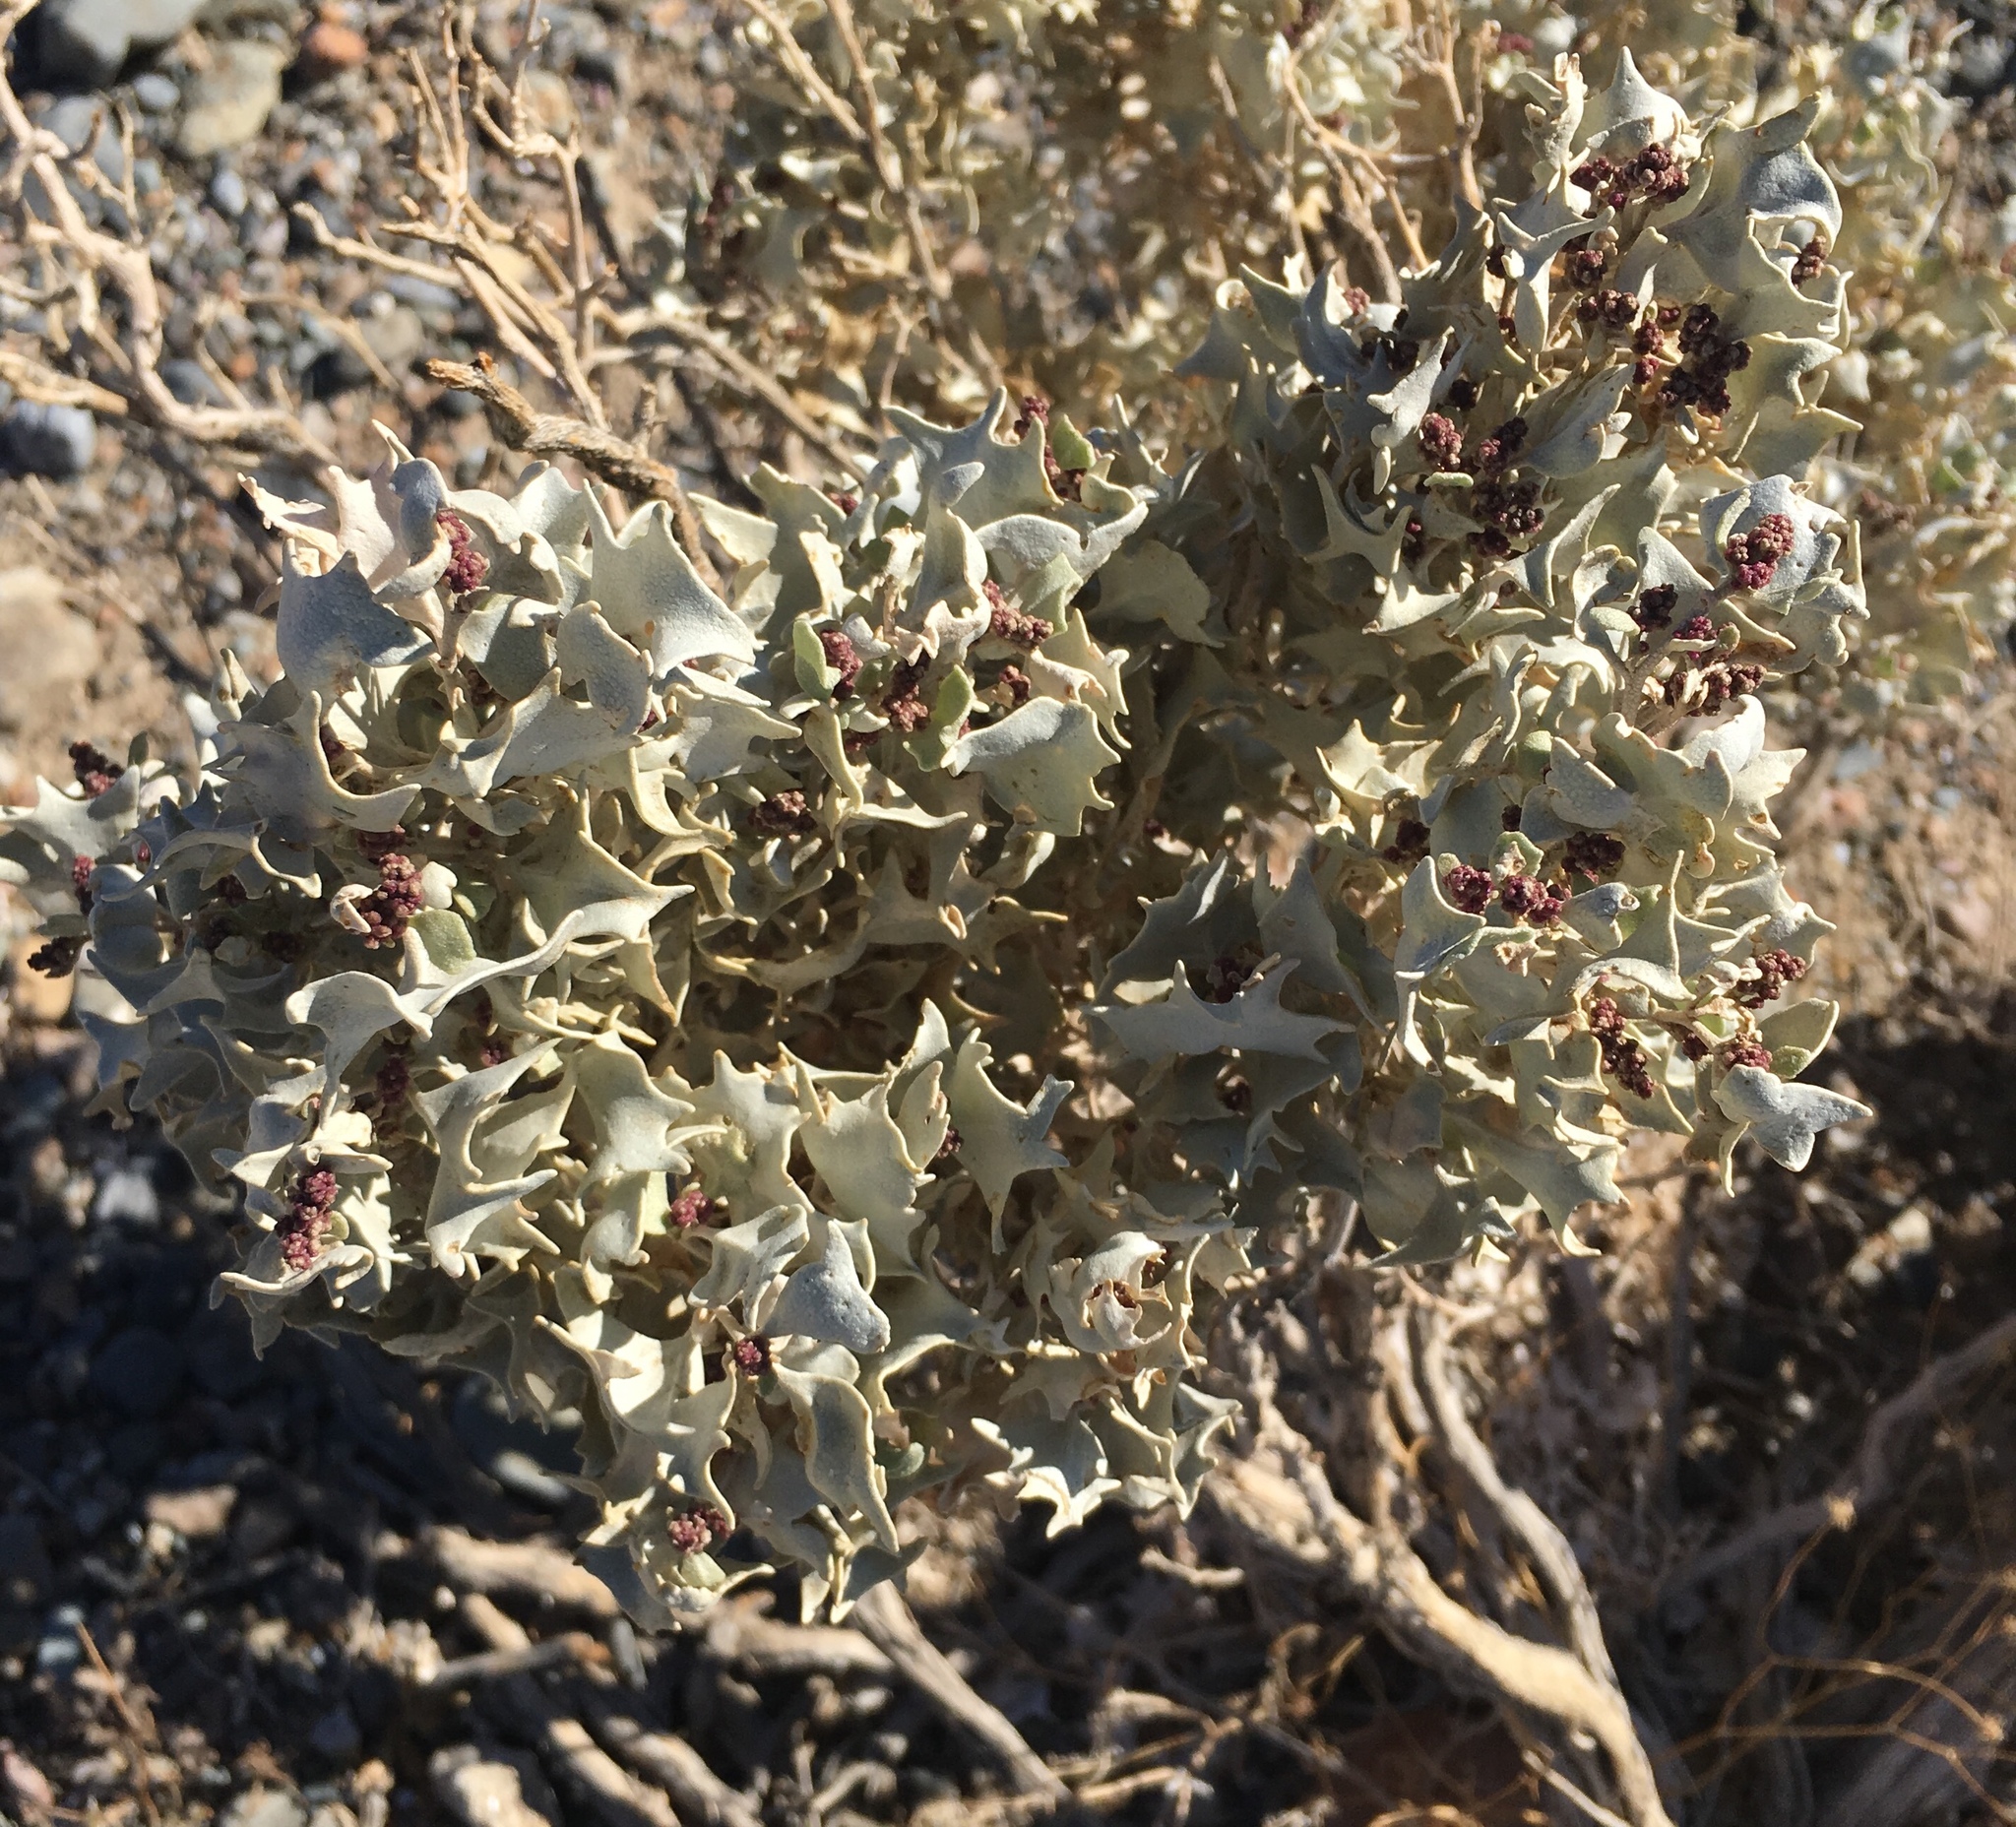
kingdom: Plantae
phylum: Tracheophyta
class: Magnoliopsida
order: Caryophyllales
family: Amaranthaceae
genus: Atriplex
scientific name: Atriplex hymenelytra
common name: Desert-holly
